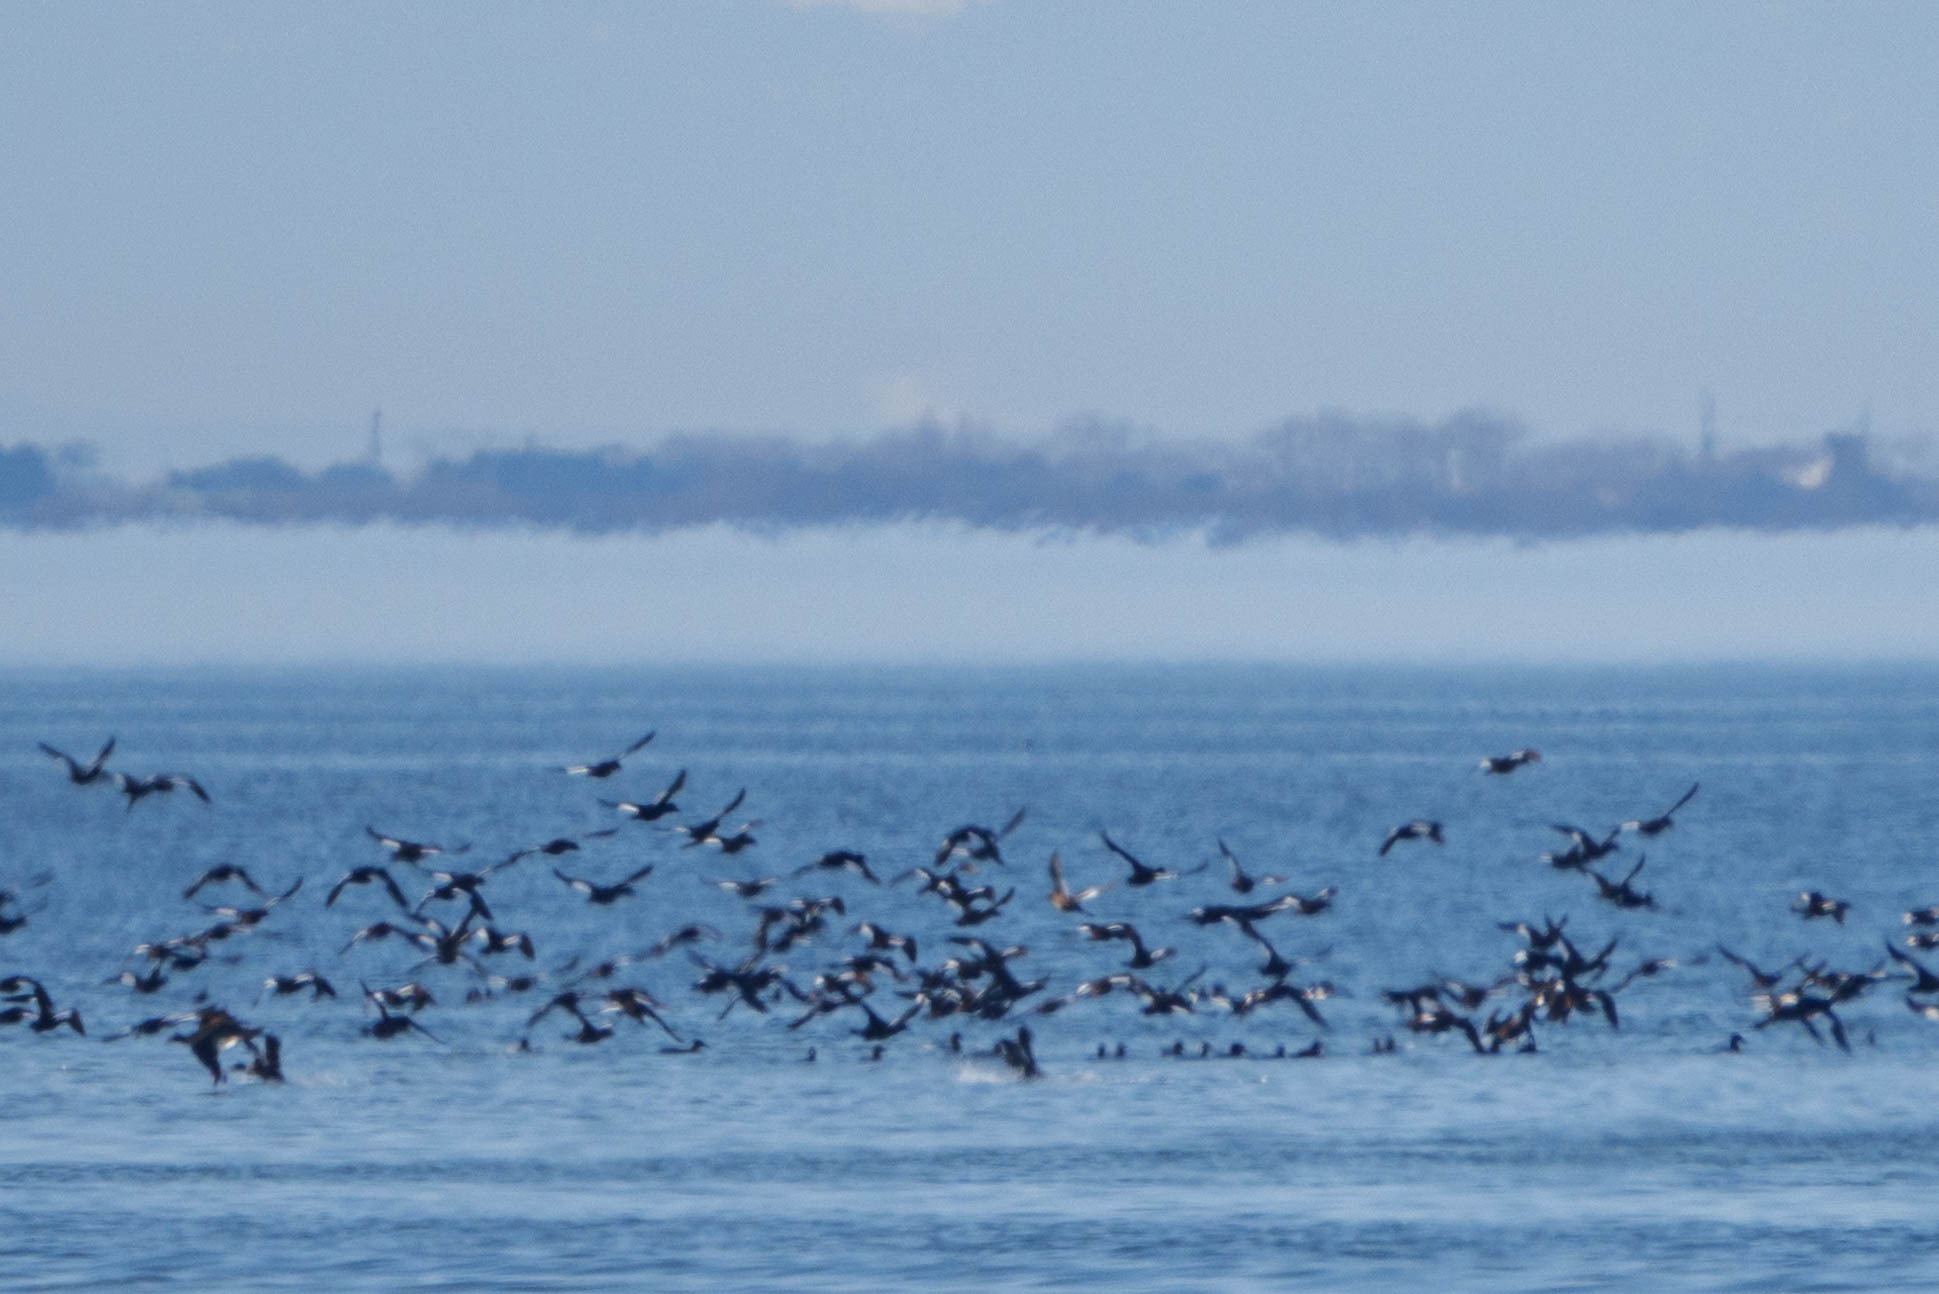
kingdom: Animalia
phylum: Chordata
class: Aves
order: Anseriformes
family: Anatidae
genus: Melanitta
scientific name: Melanitta deglandi
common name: White-winged scoter
